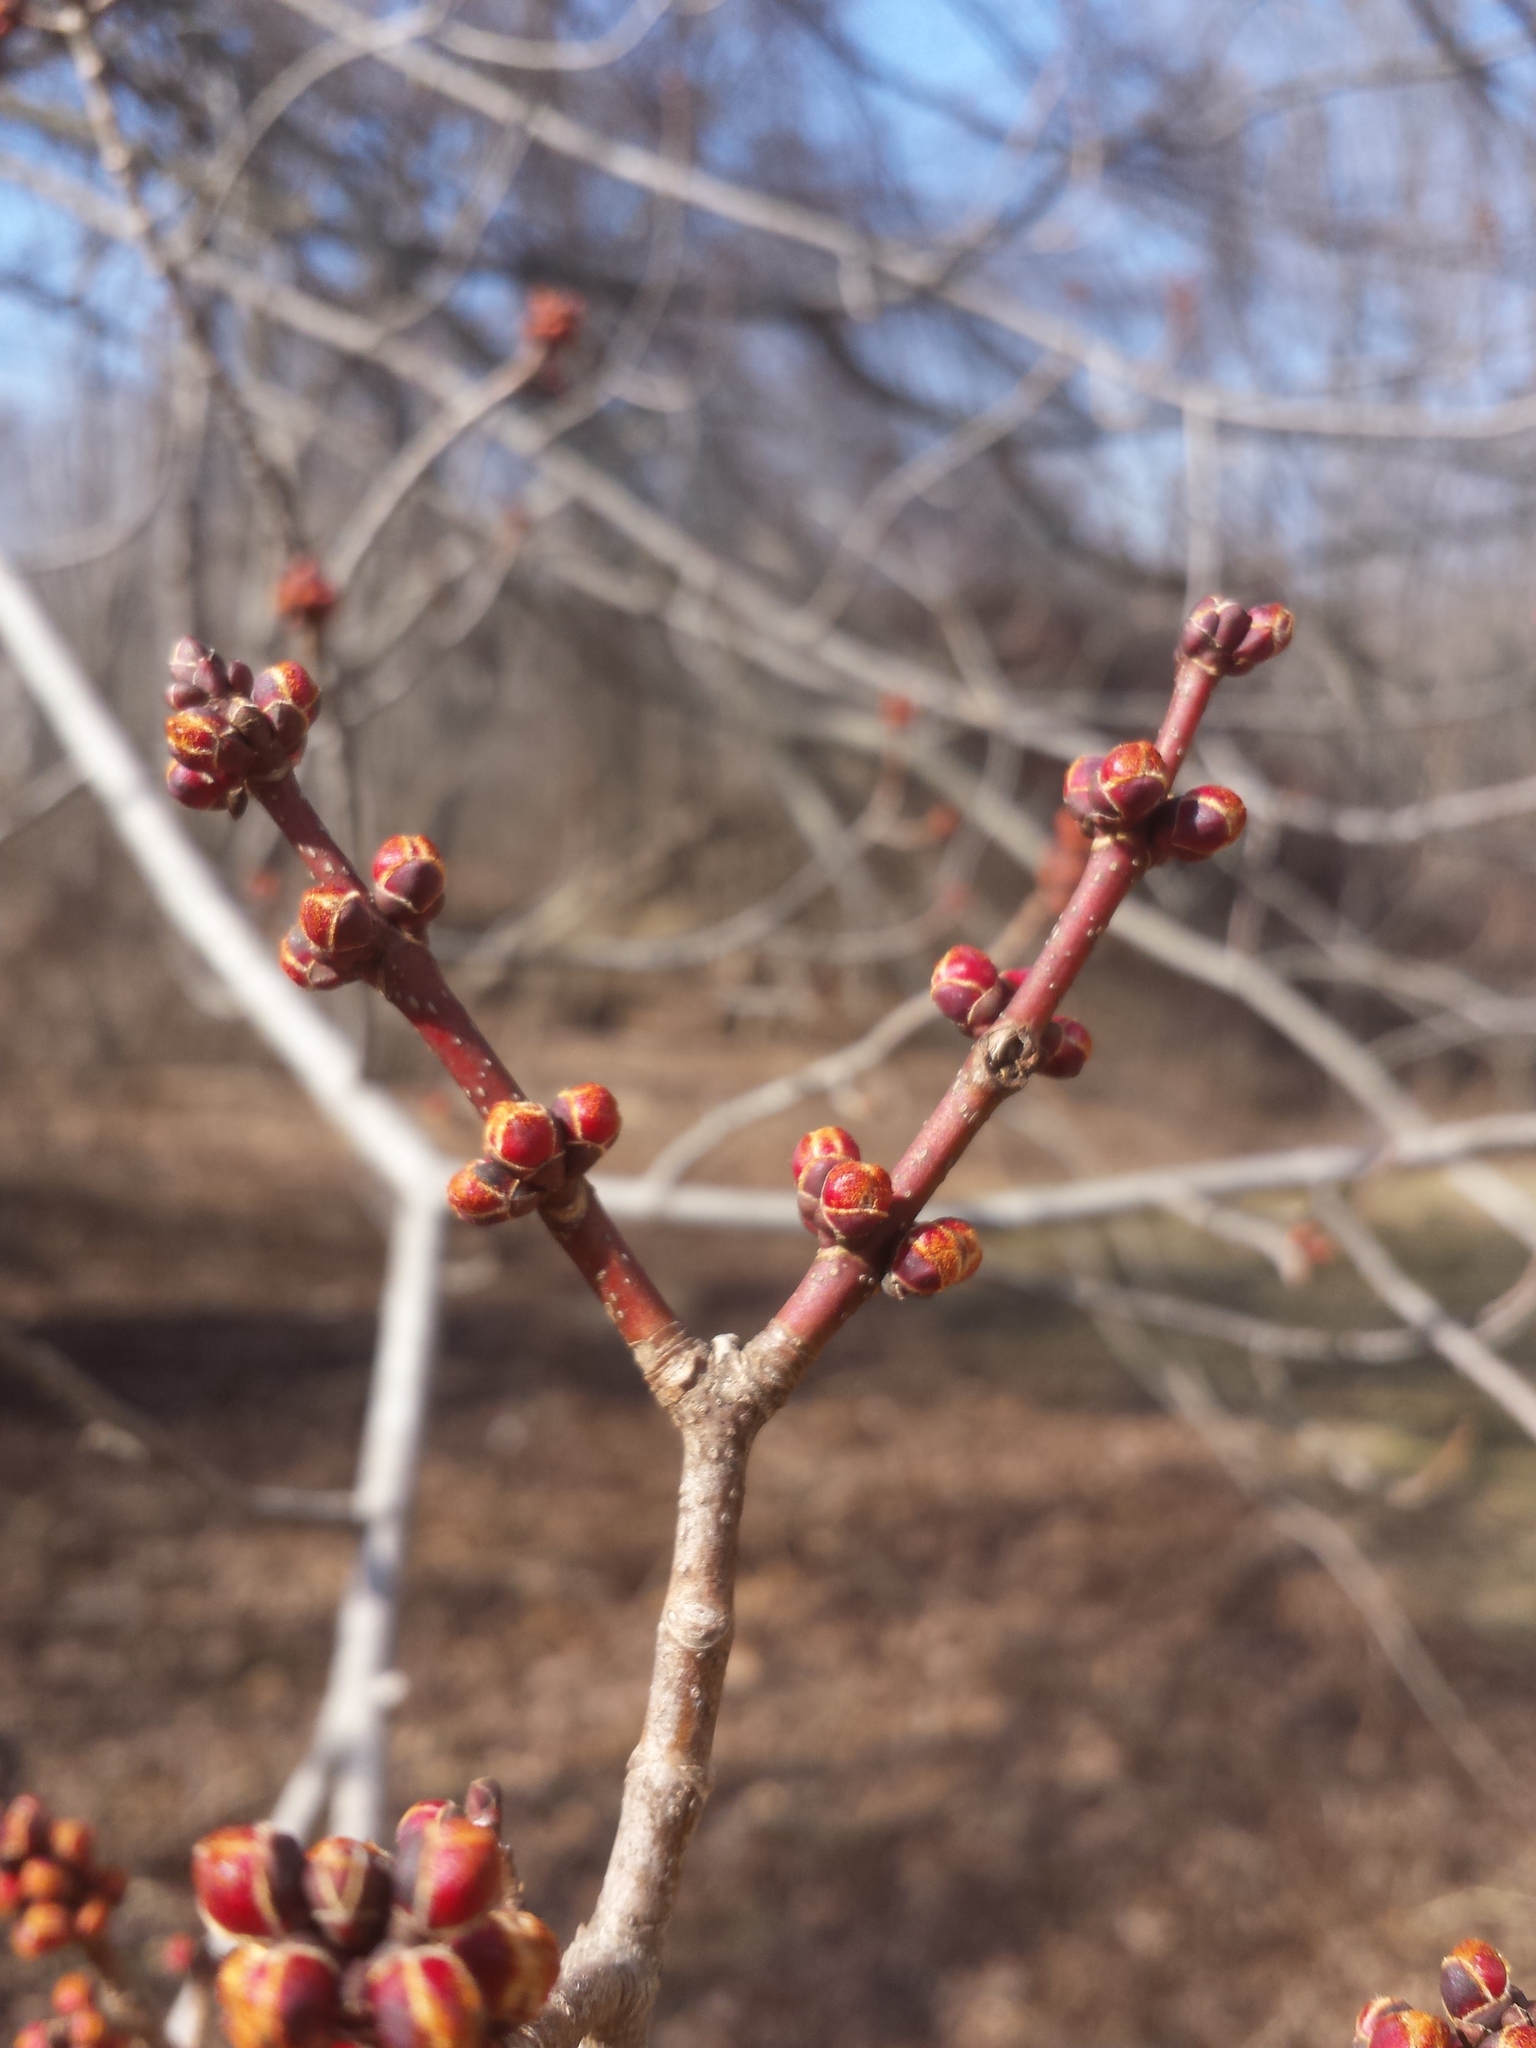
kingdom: Plantae
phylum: Tracheophyta
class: Magnoliopsida
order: Sapindales
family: Sapindaceae
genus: Acer
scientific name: Acer rubrum
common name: Red maple
